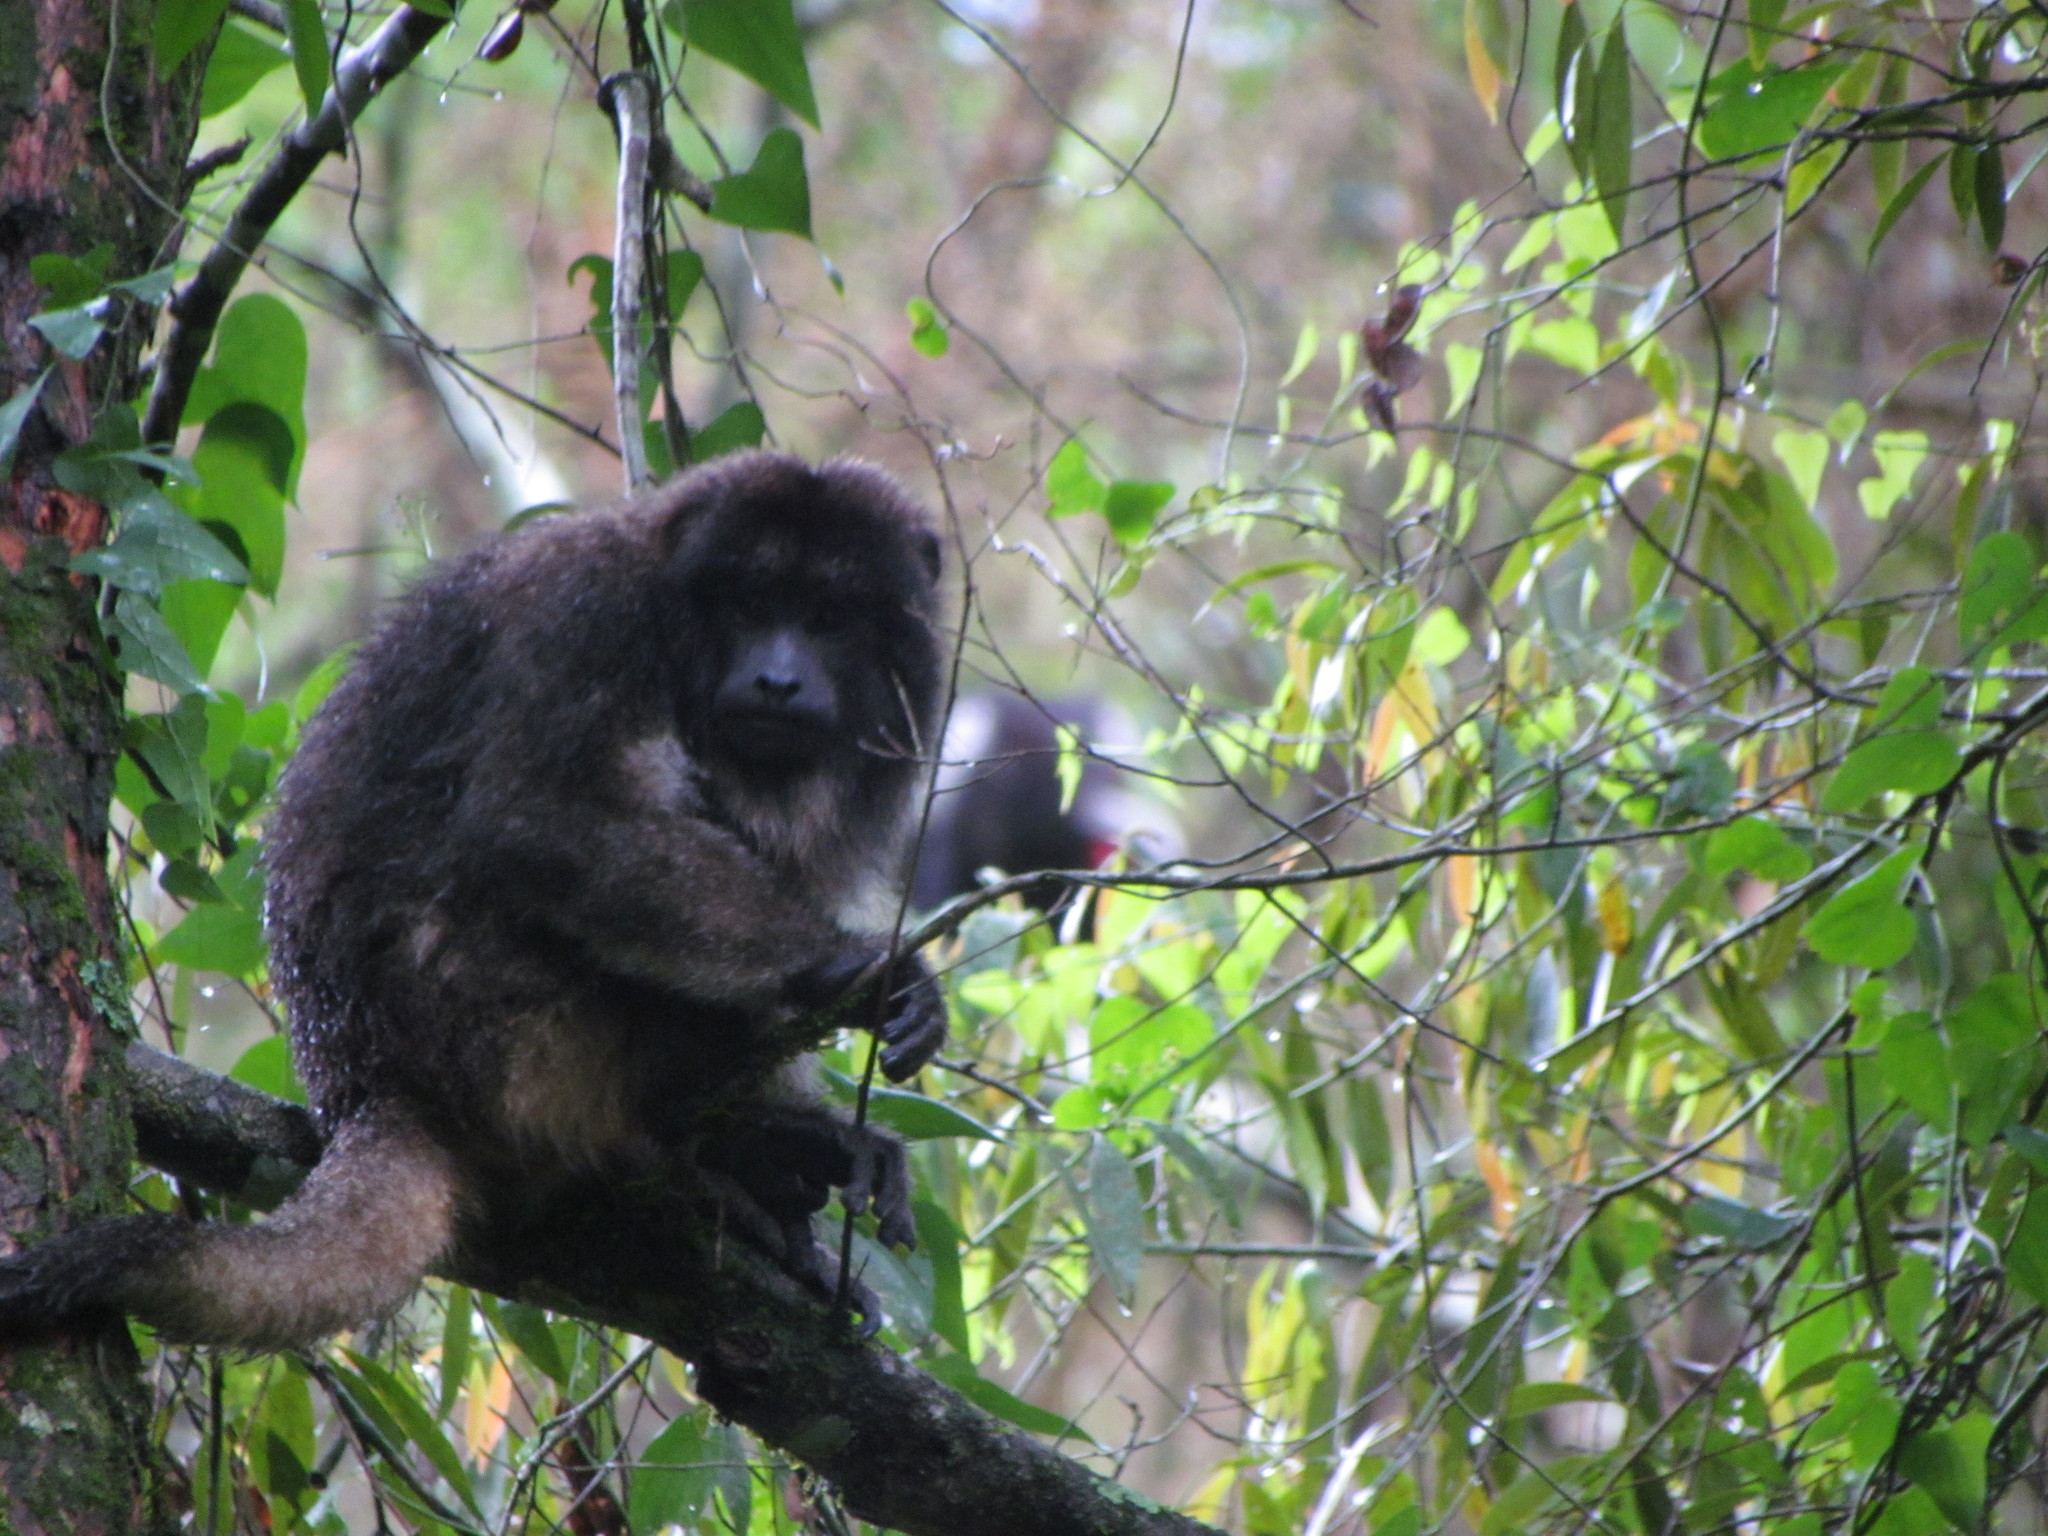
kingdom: Animalia
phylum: Chordata
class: Mammalia
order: Primates
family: Atelidae
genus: Alouatta
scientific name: Alouatta caraya
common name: Black howler
